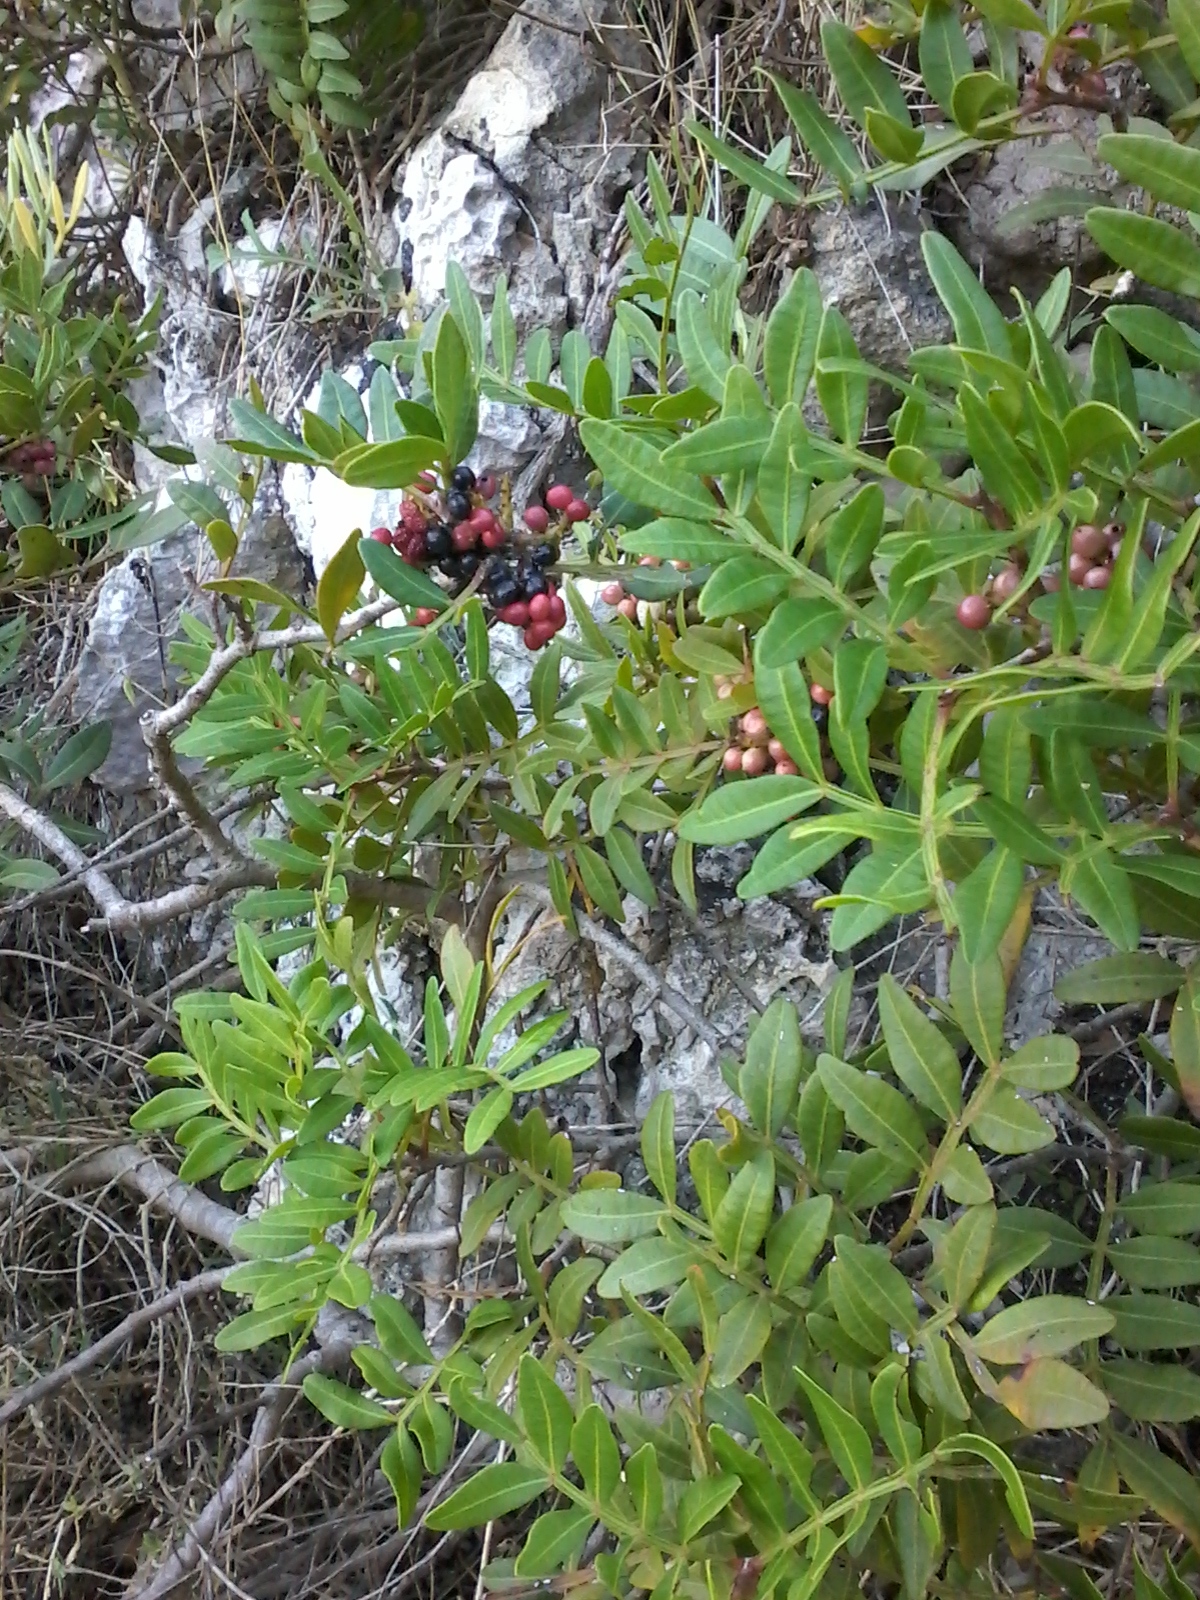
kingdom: Plantae
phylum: Tracheophyta
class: Magnoliopsida
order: Sapindales
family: Anacardiaceae
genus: Pistacia
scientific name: Pistacia lentiscus
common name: Lentisk
